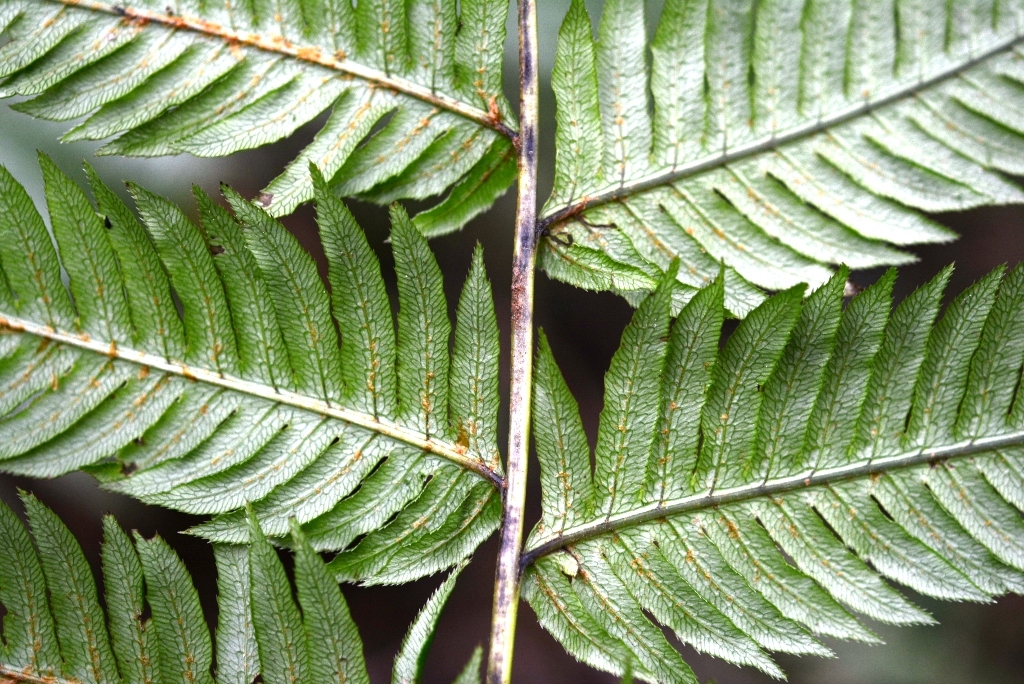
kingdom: Plantae
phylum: Tracheophyta
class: Polypodiopsida
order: Polypodiales
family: Blechnaceae
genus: Woodwardia
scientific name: Woodwardia spinulosa
